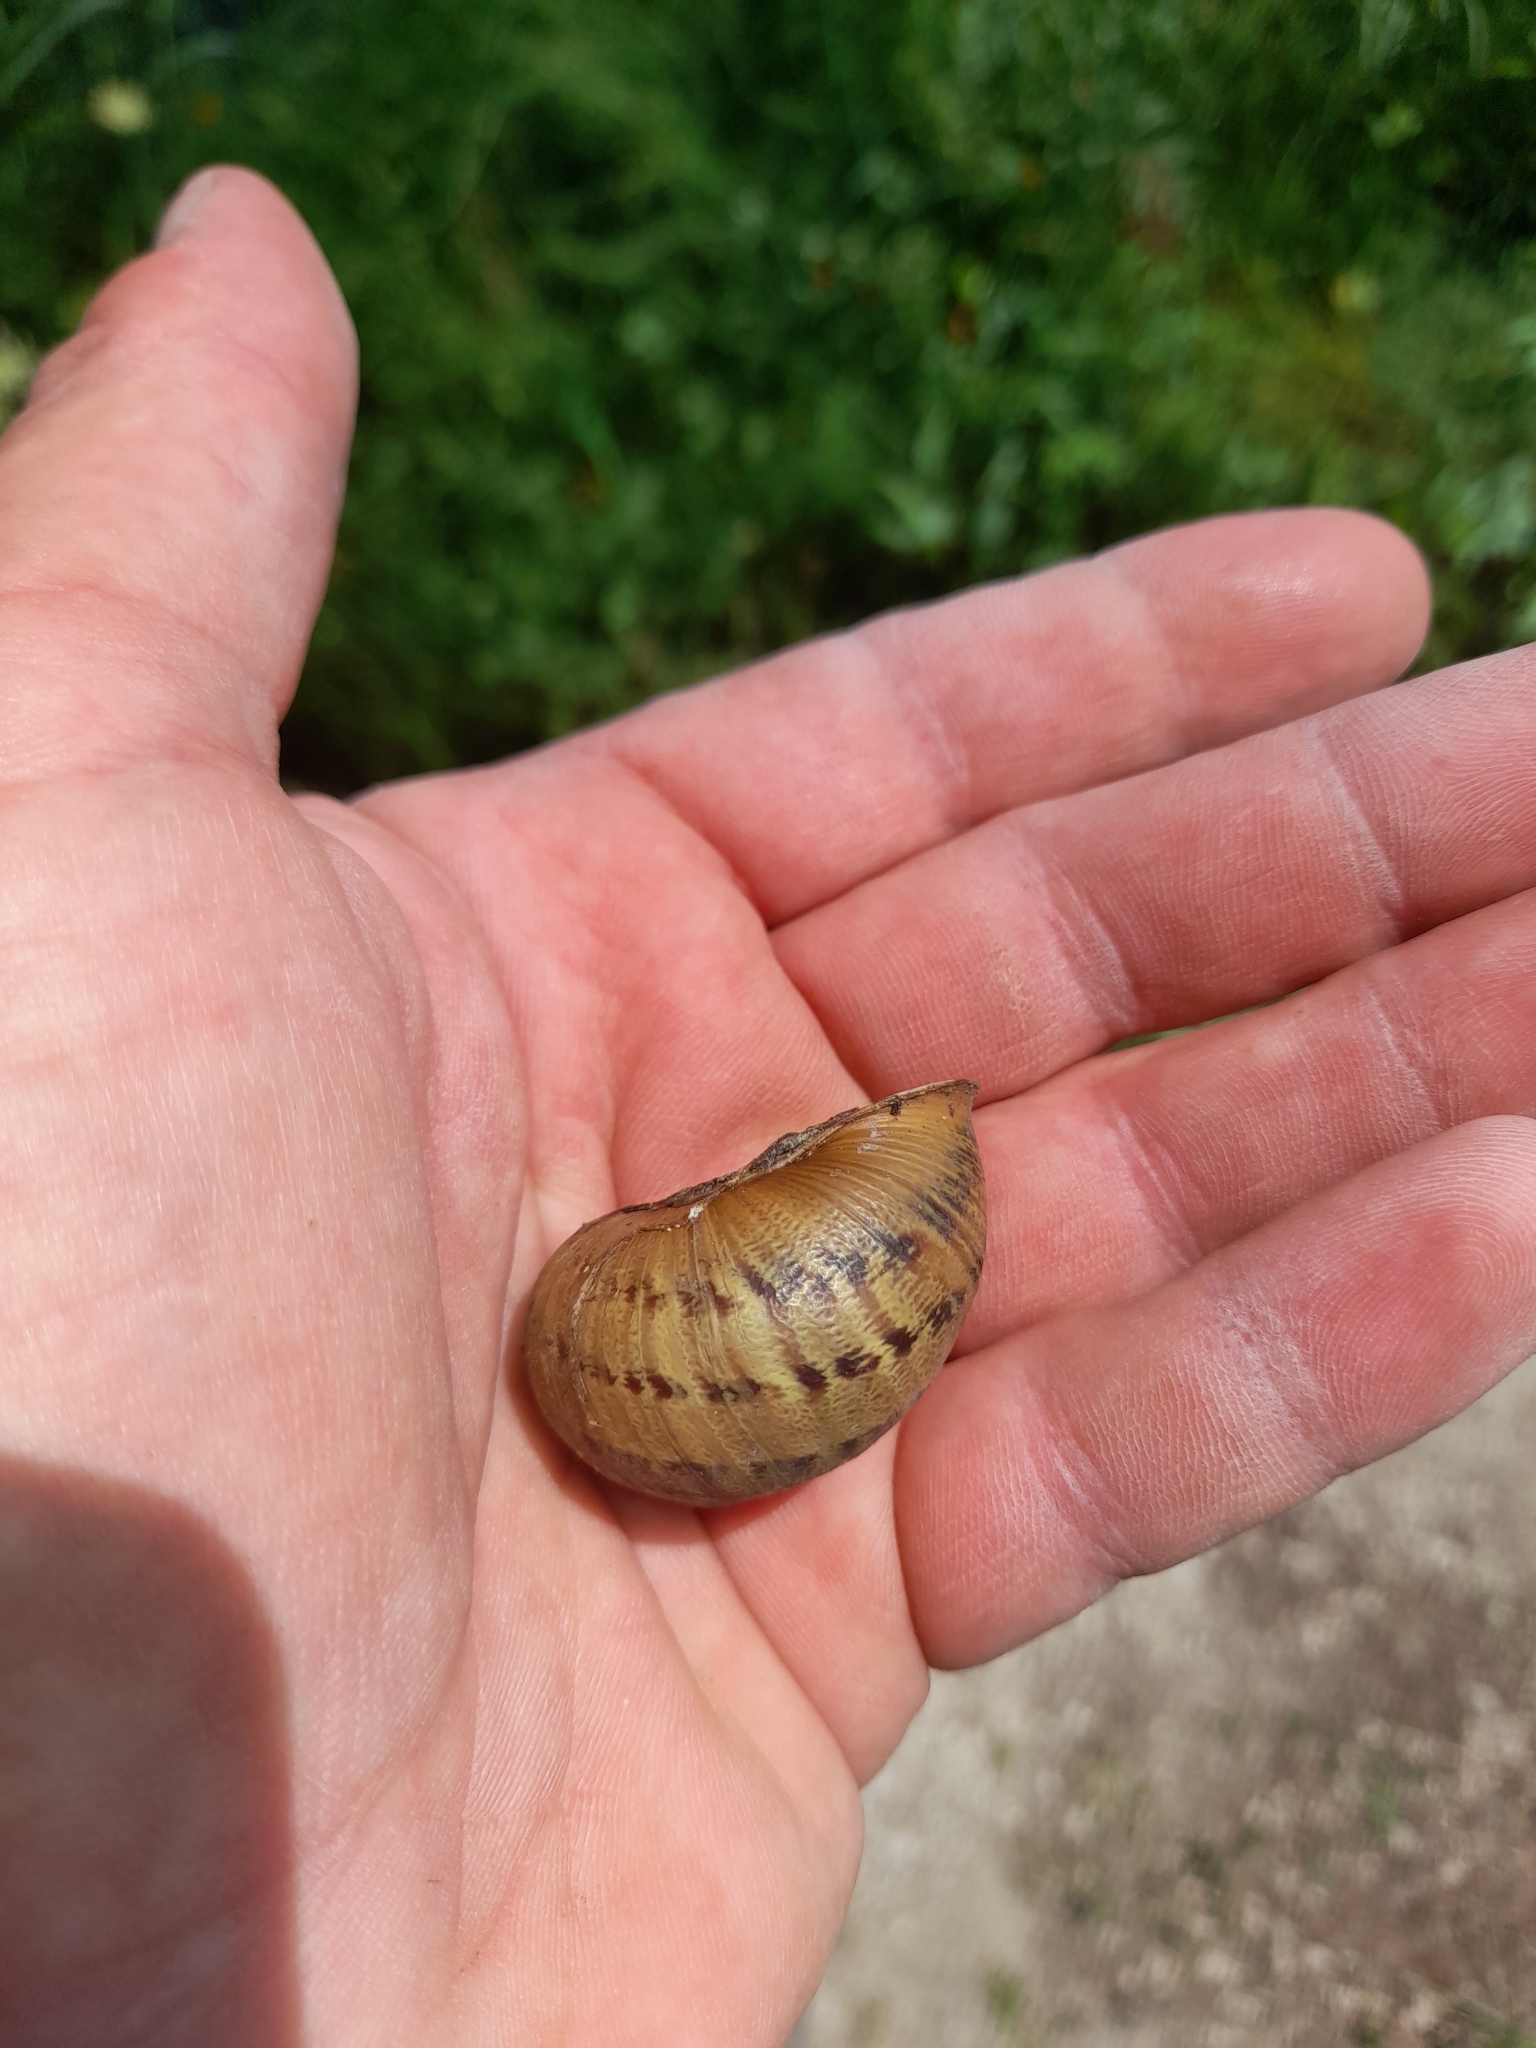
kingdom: Animalia
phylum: Mollusca
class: Gastropoda
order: Stylommatophora
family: Helicidae
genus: Cornu
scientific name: Cornu aspersum
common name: Brown garden snail
